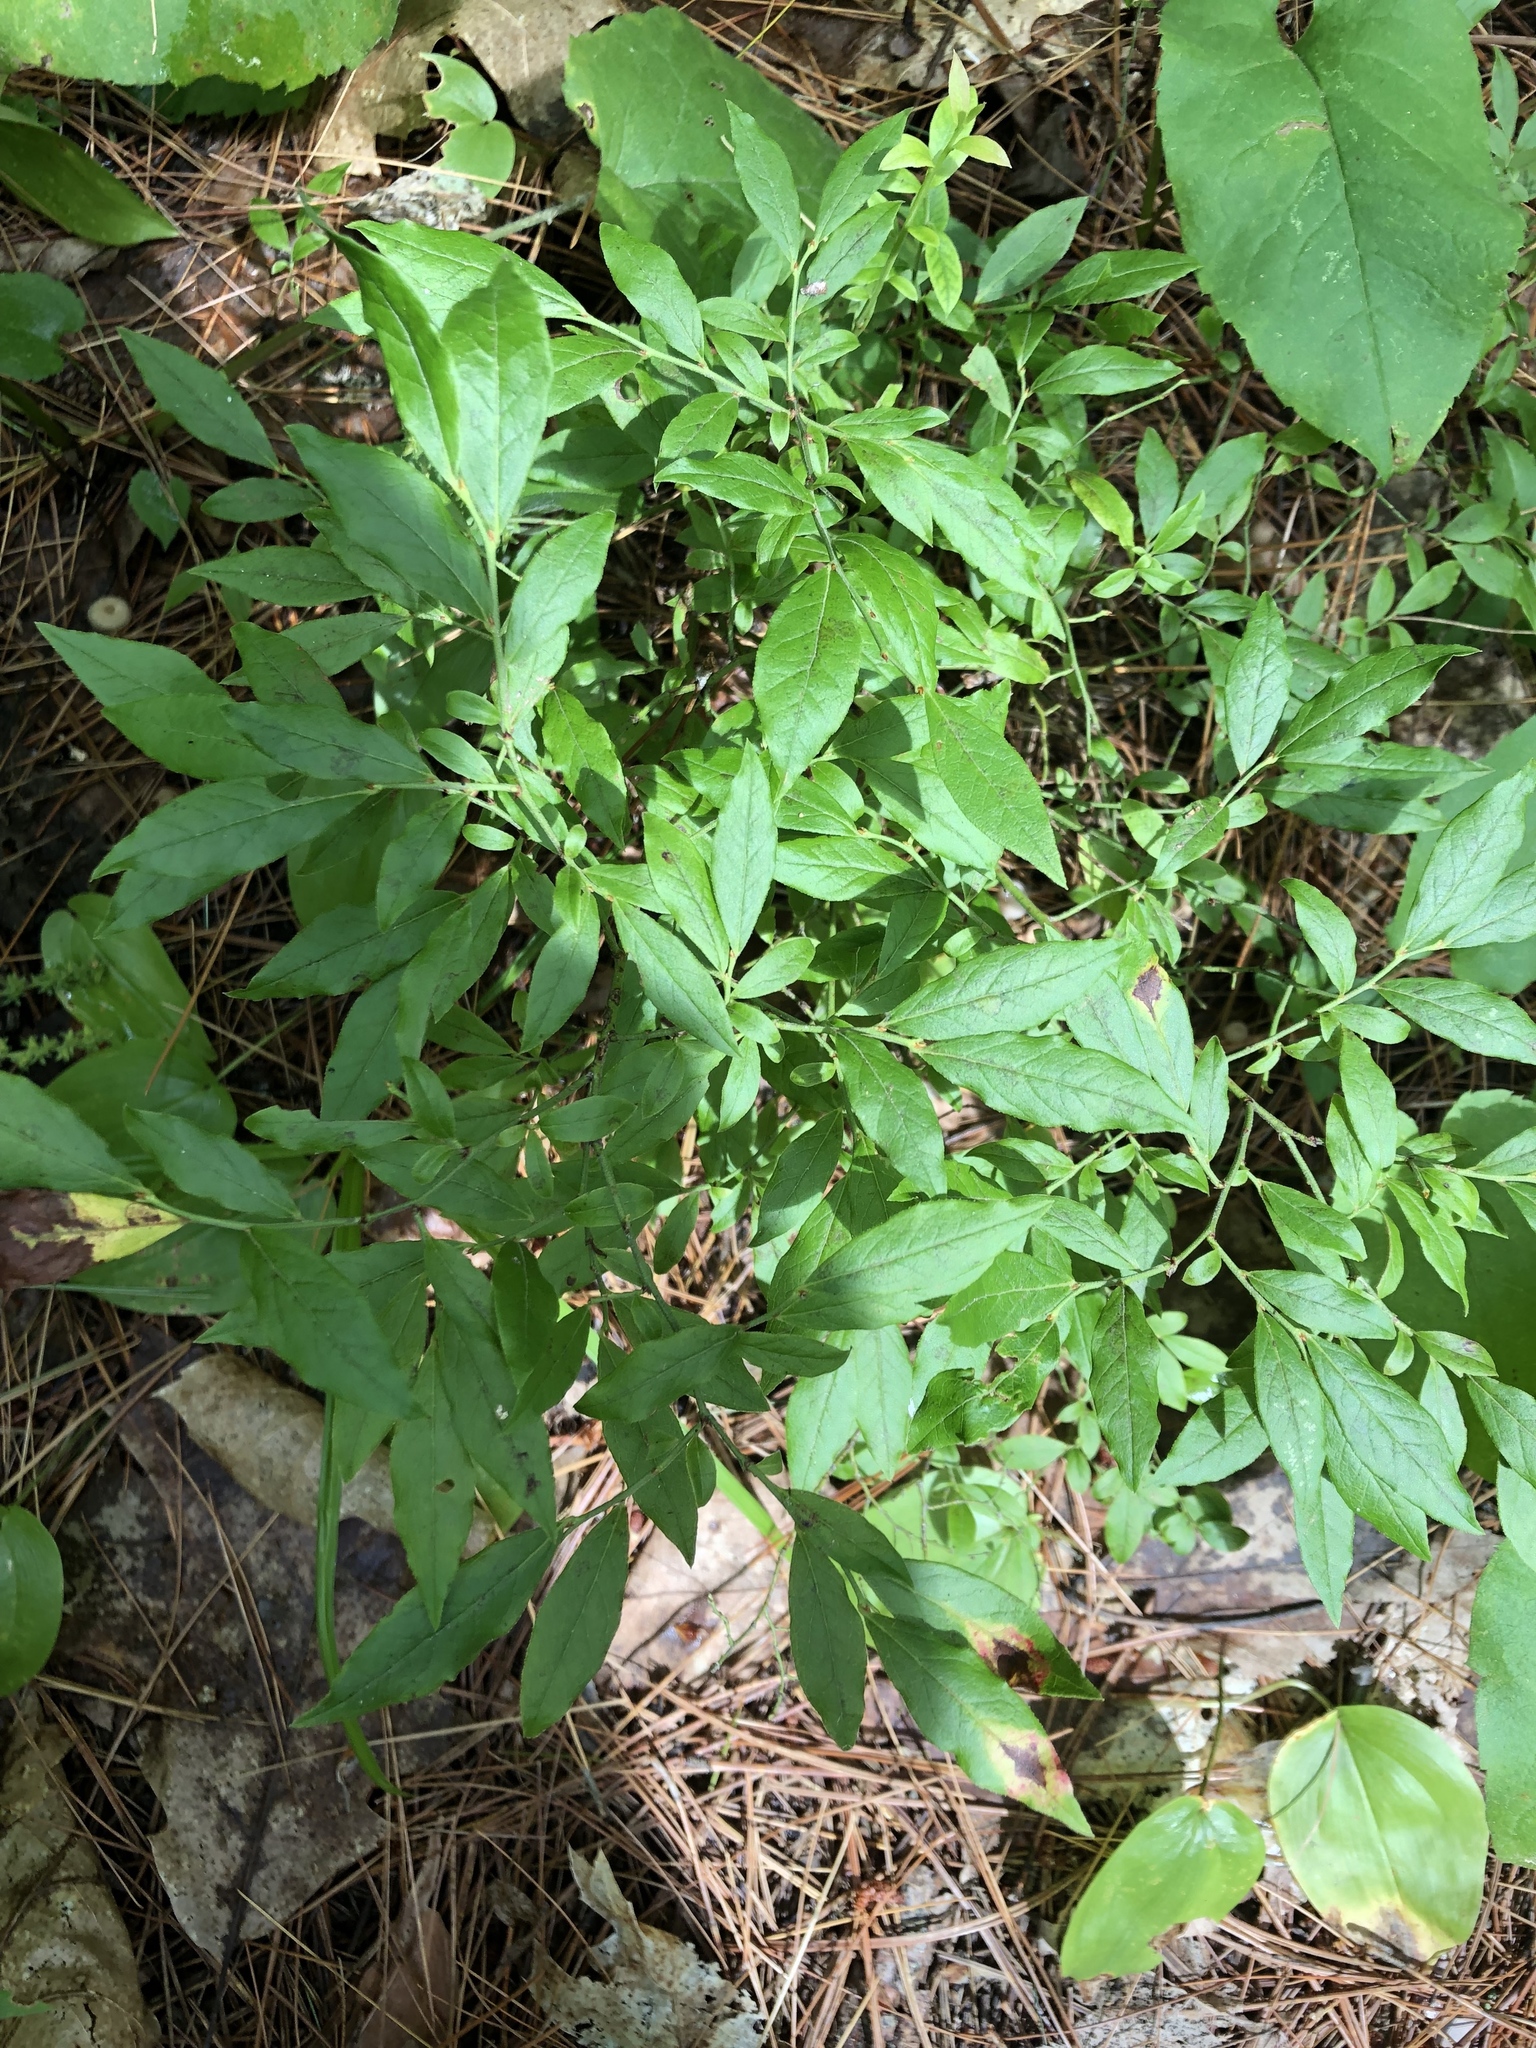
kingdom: Plantae
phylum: Tracheophyta
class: Magnoliopsida
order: Ericales
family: Ericaceae
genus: Vaccinium
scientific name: Vaccinium angustifolium
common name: Early lowbush blueberry
